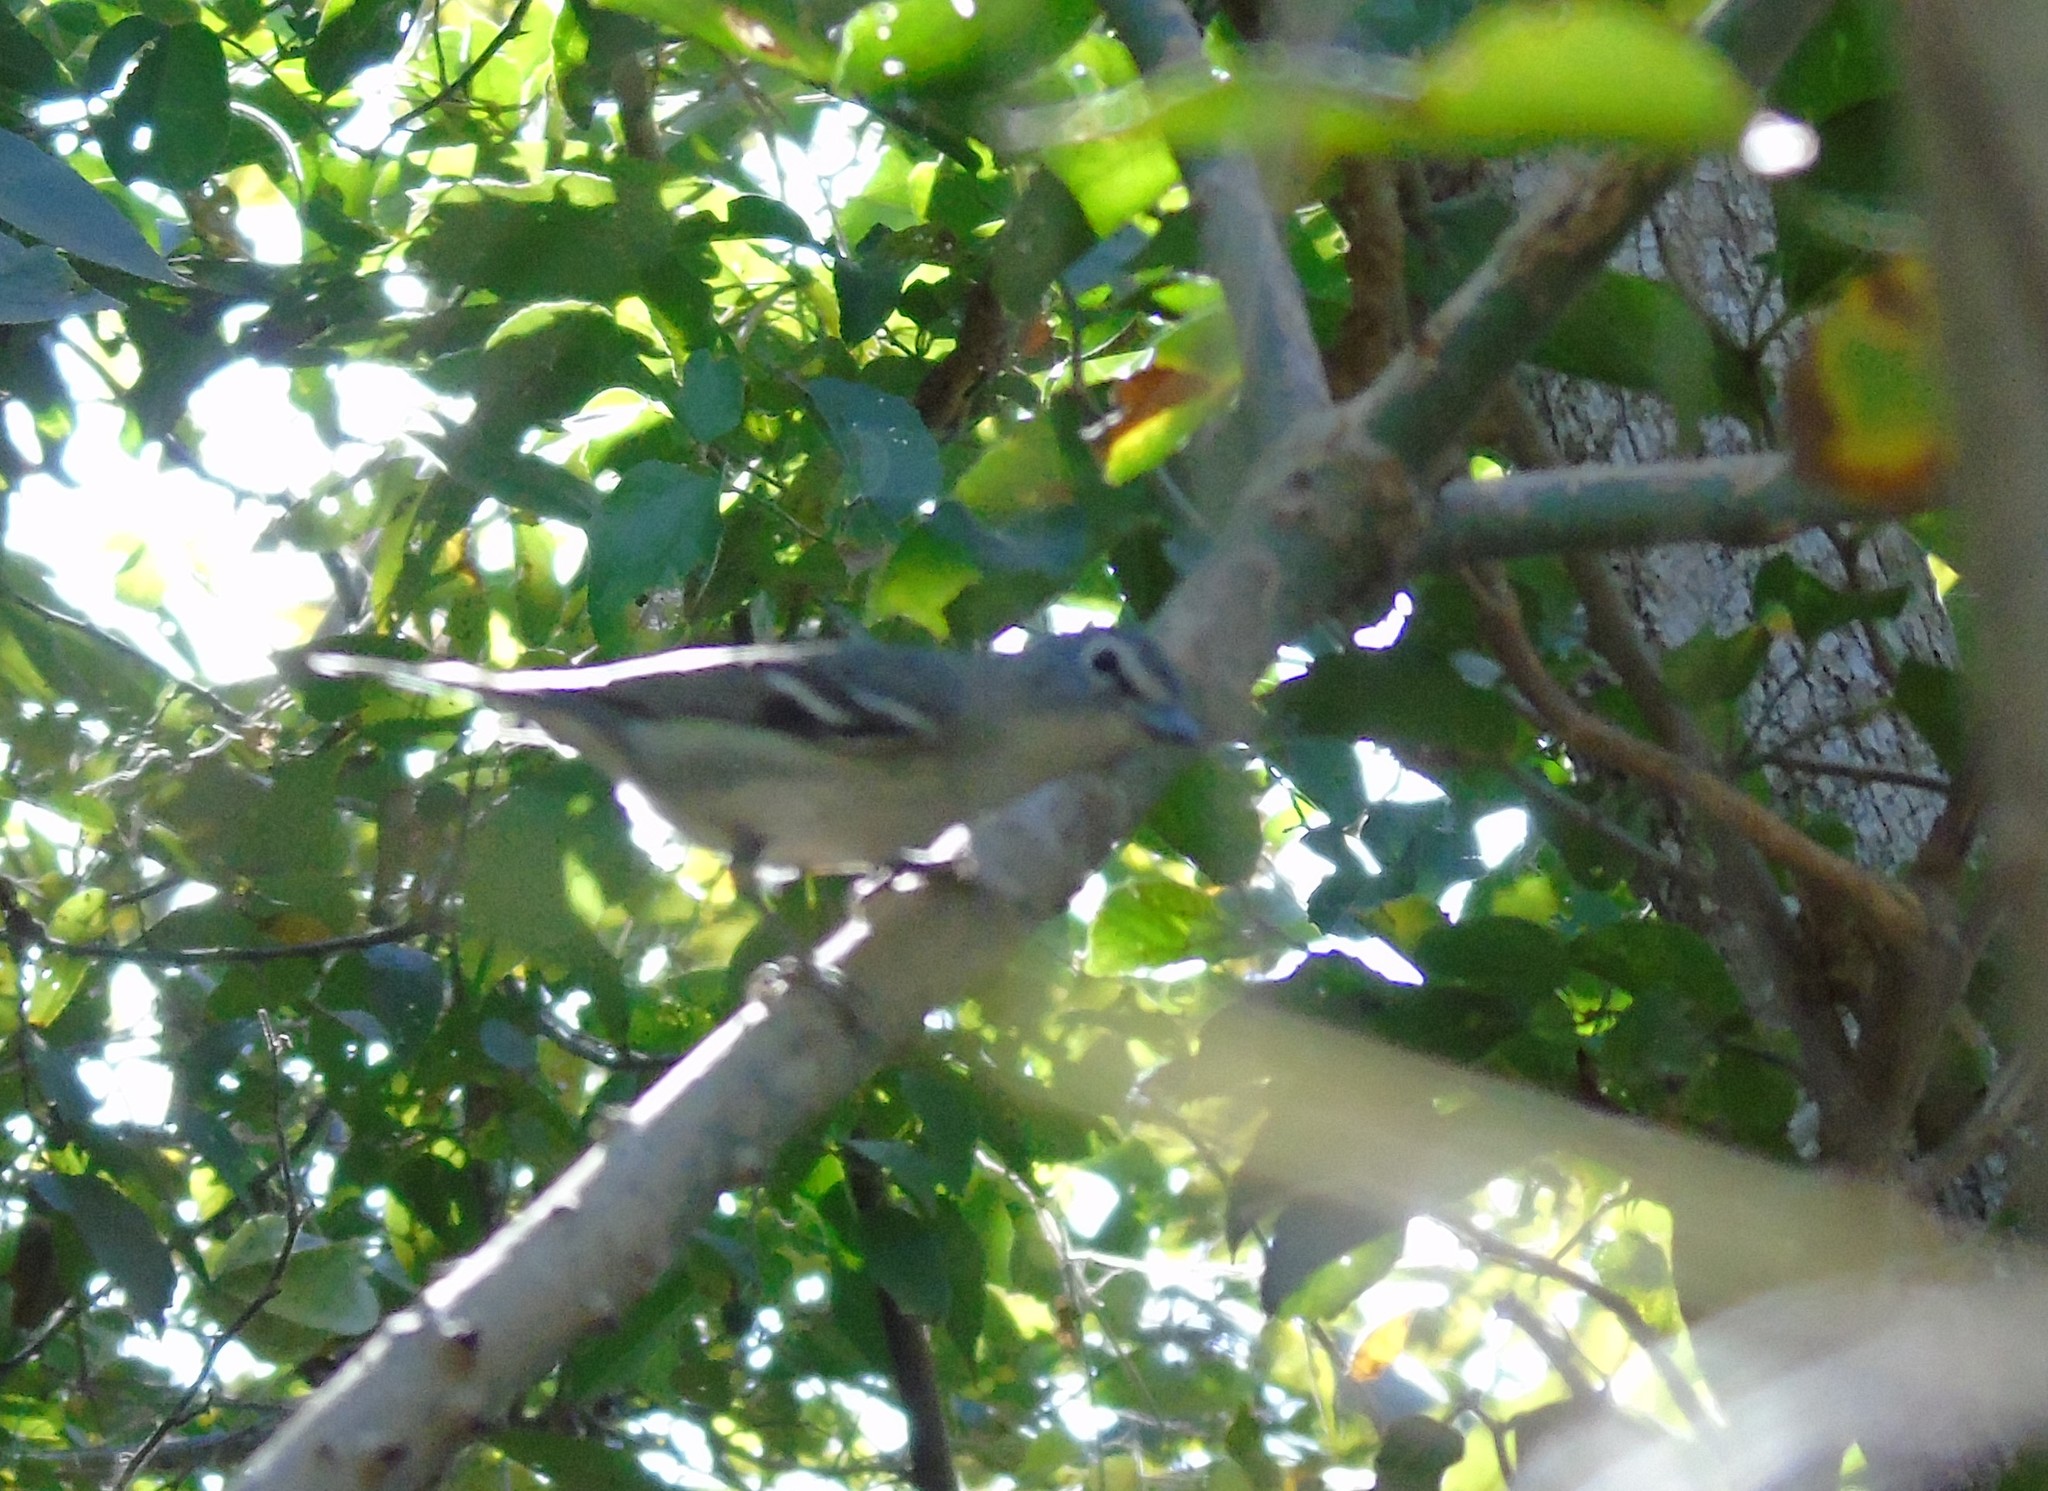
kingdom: Animalia
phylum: Chordata
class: Aves
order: Passeriformes
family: Vireonidae
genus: Vireo
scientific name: Vireo cassinii
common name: Cassin's vireo
